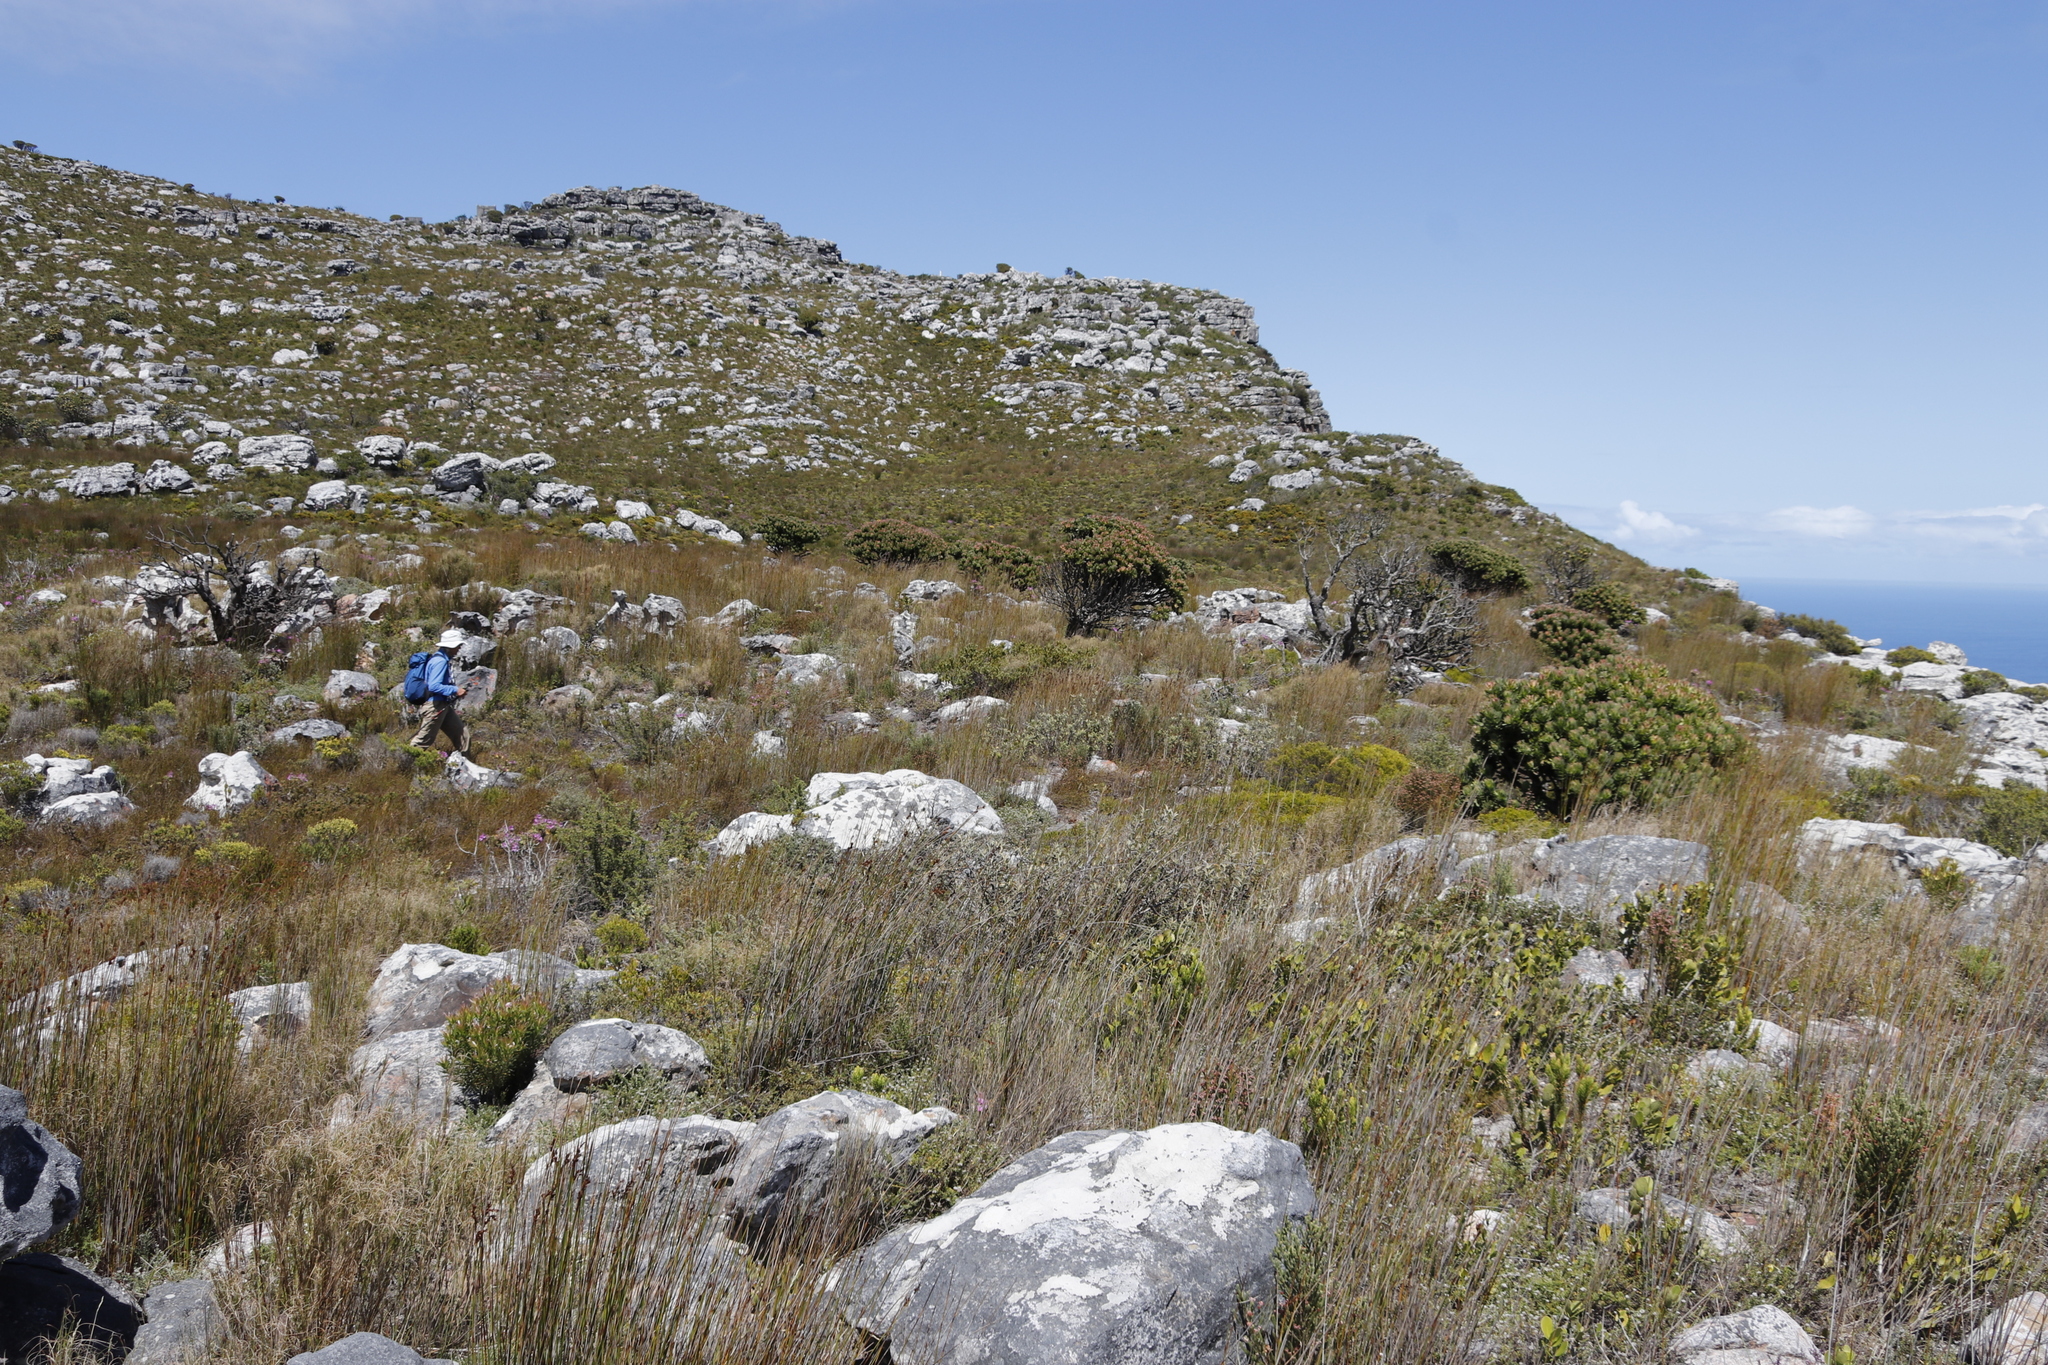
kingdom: Plantae
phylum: Tracheophyta
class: Magnoliopsida
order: Proteales
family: Proteaceae
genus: Mimetes
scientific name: Mimetes fimbriifolius
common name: Fringed bottlebrush
